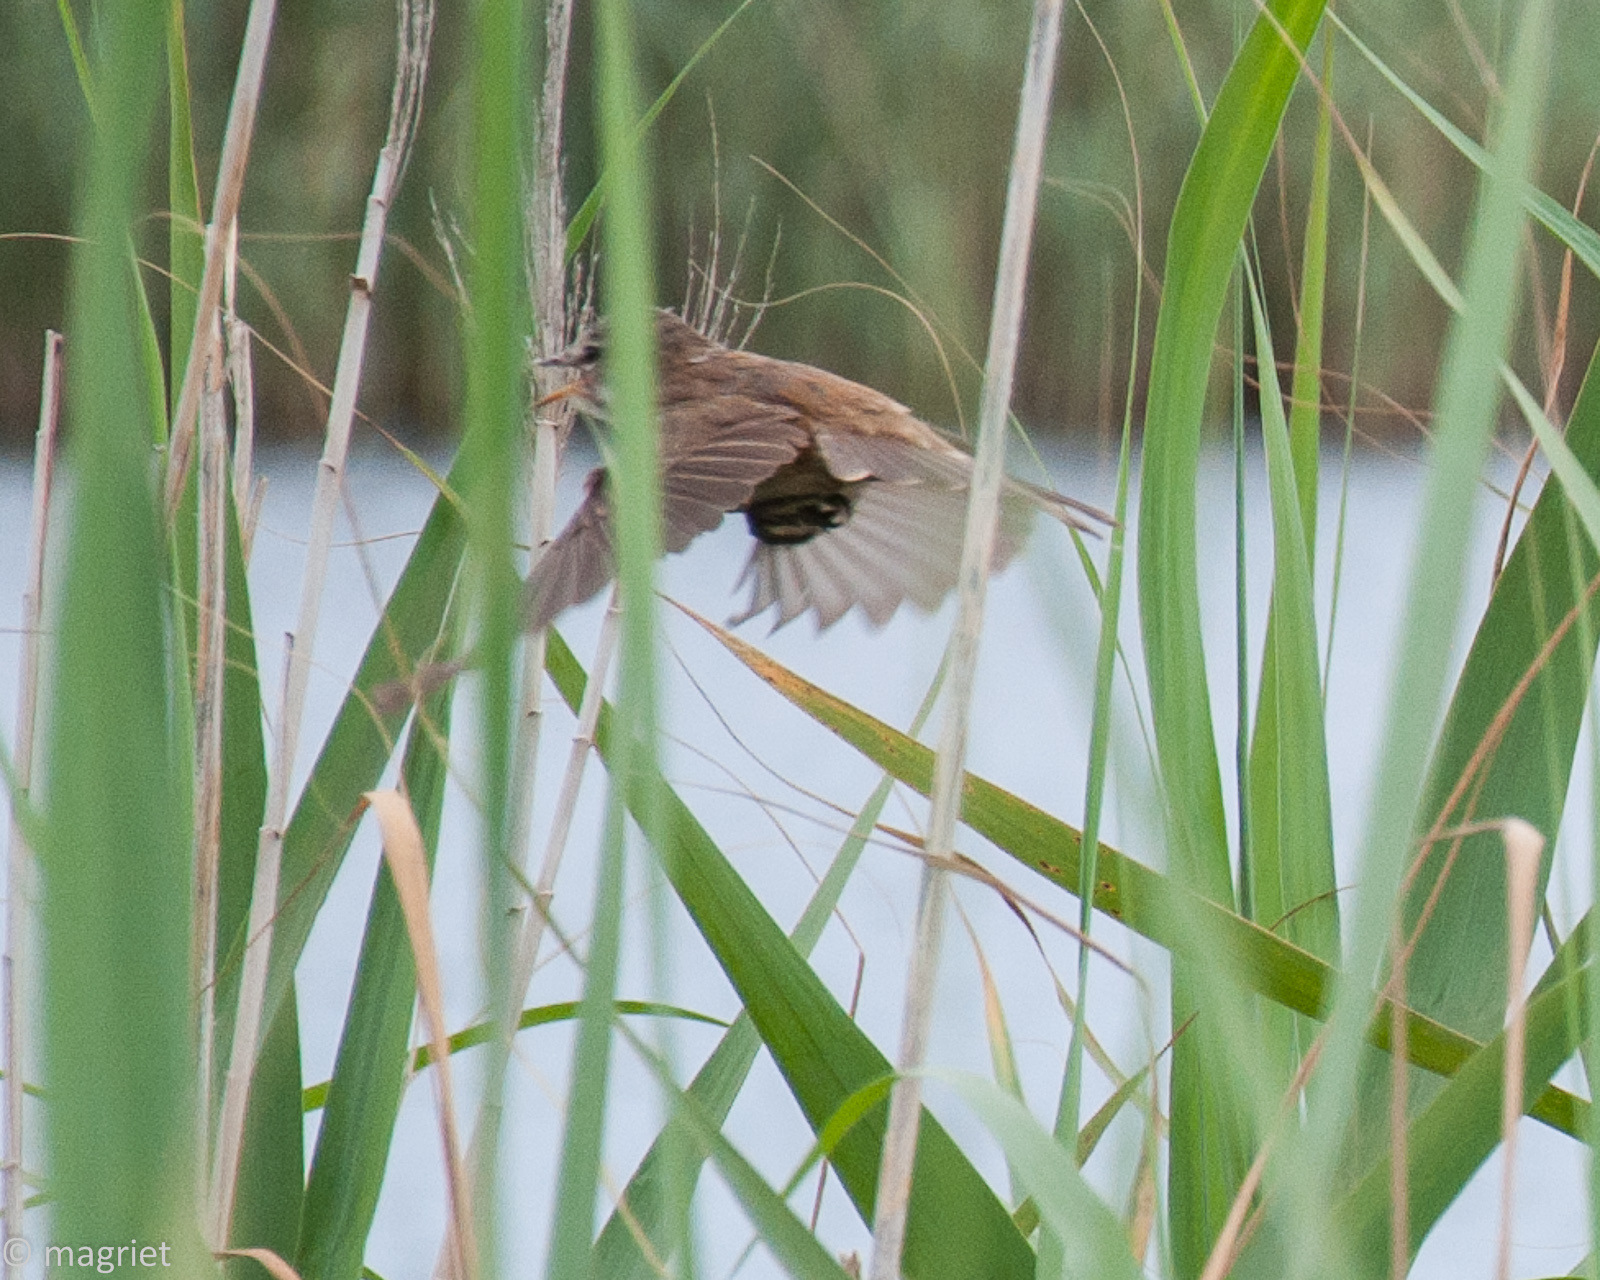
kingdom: Animalia
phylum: Chordata
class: Aves
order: Passeriformes
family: Acrocephalidae
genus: Acrocephalus
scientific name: Acrocephalus gracilirostris
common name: Lesser swamp warbler
